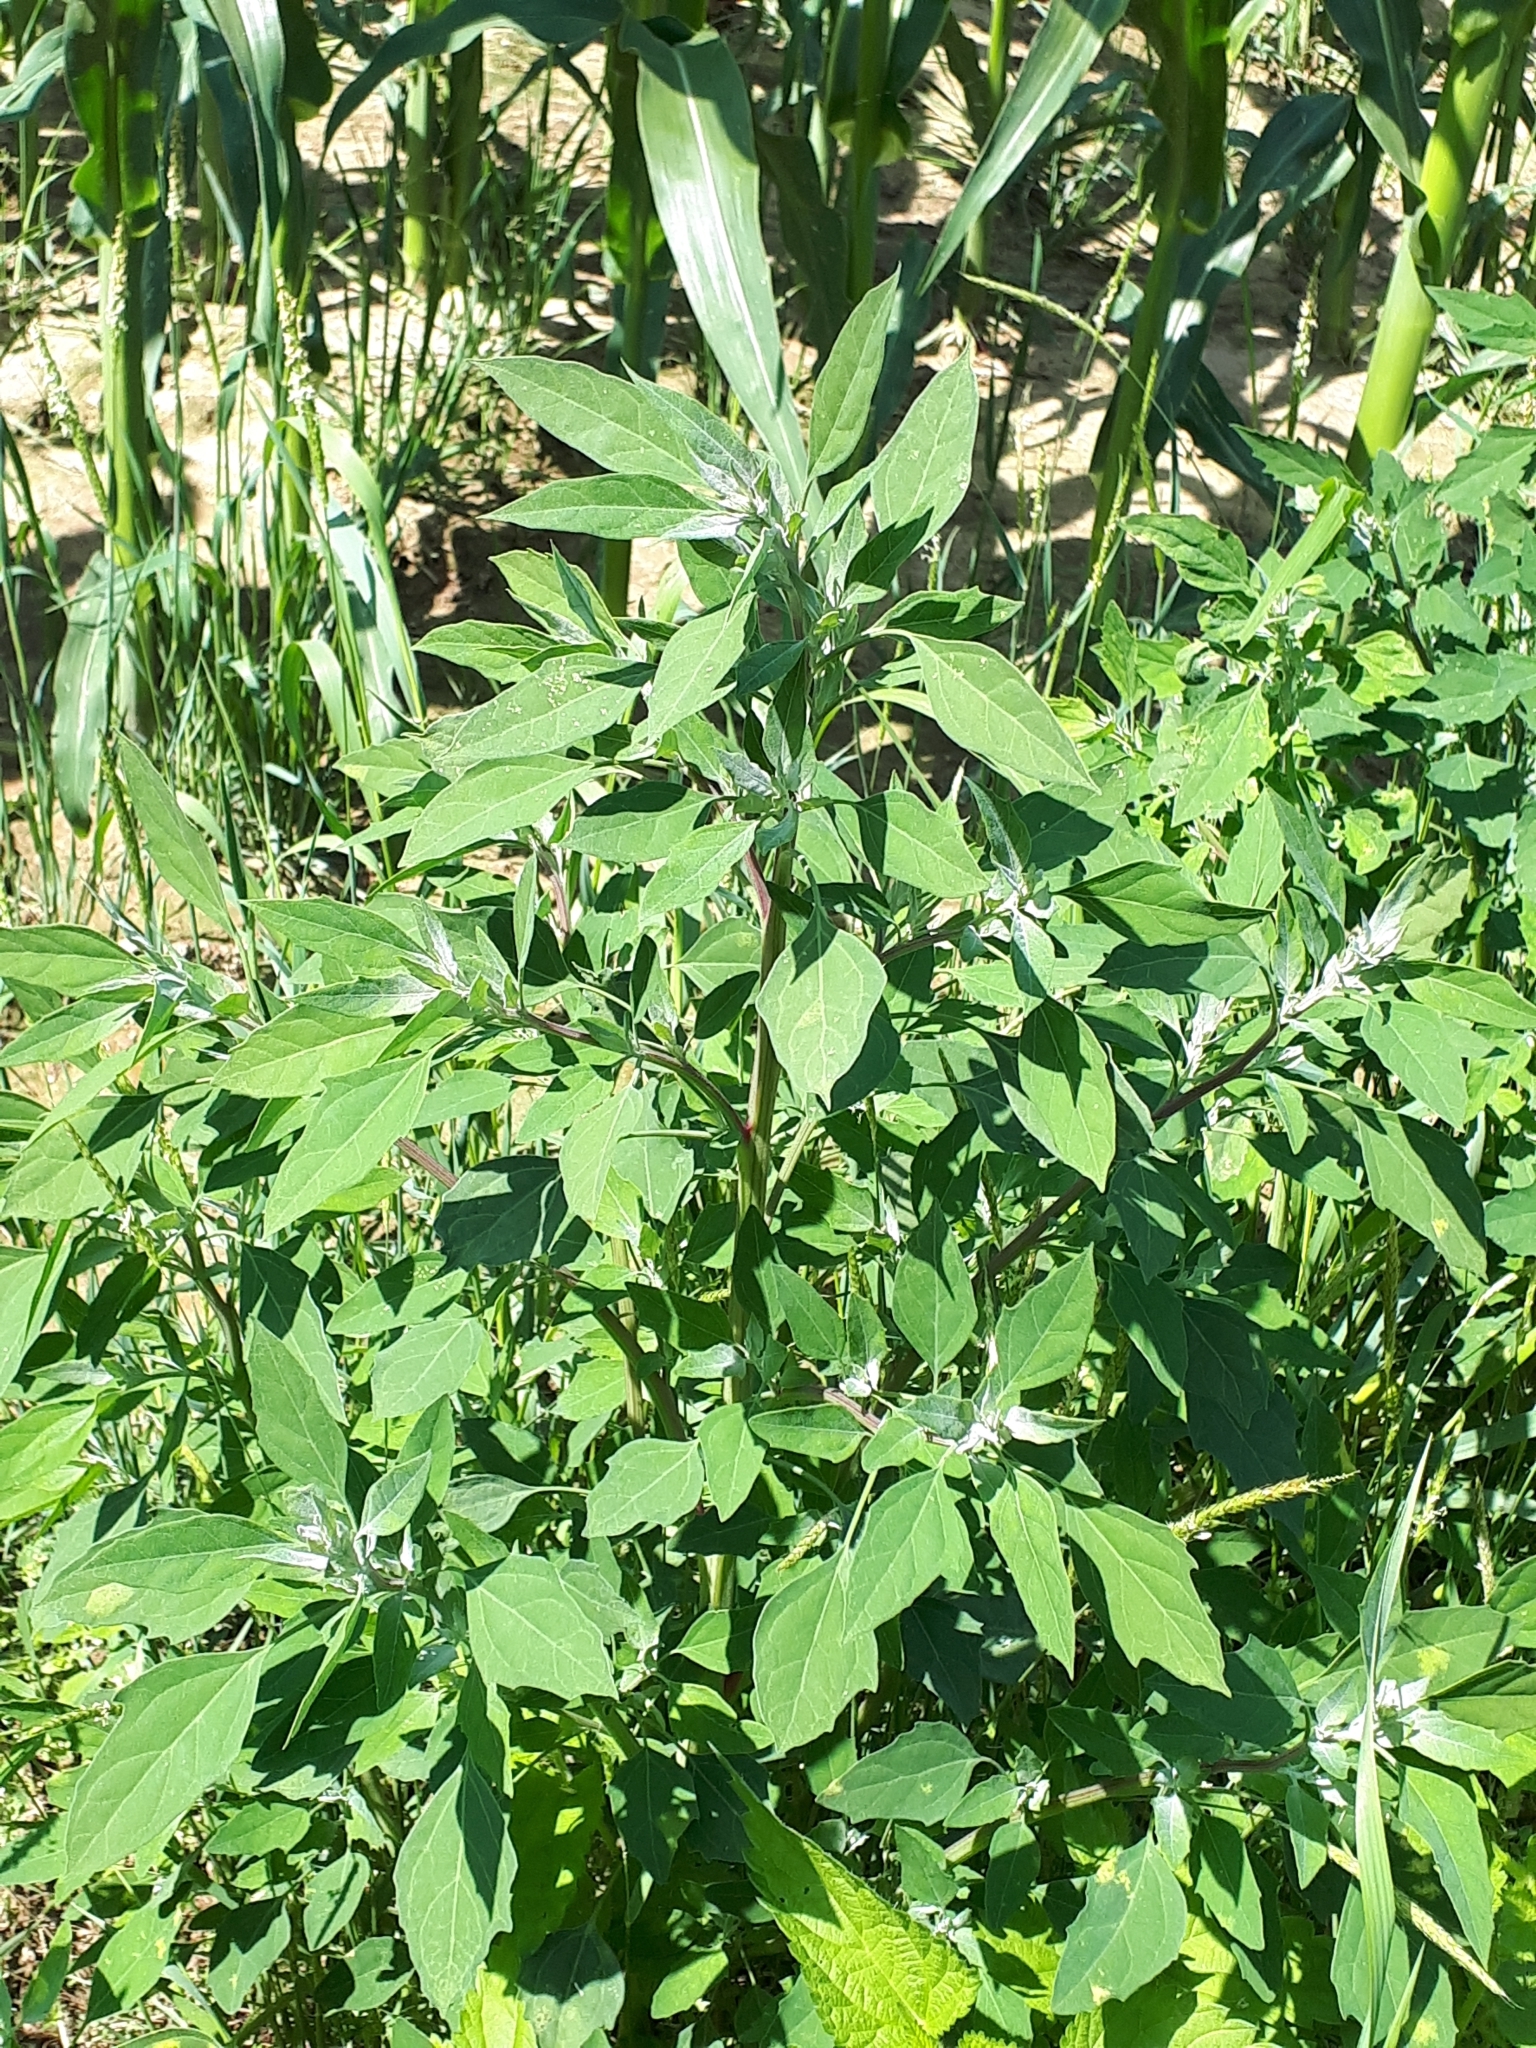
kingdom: Plantae
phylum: Tracheophyta
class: Magnoliopsida
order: Caryophyllales
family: Amaranthaceae
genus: Chenopodium
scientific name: Chenopodium album
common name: Fat-hen
